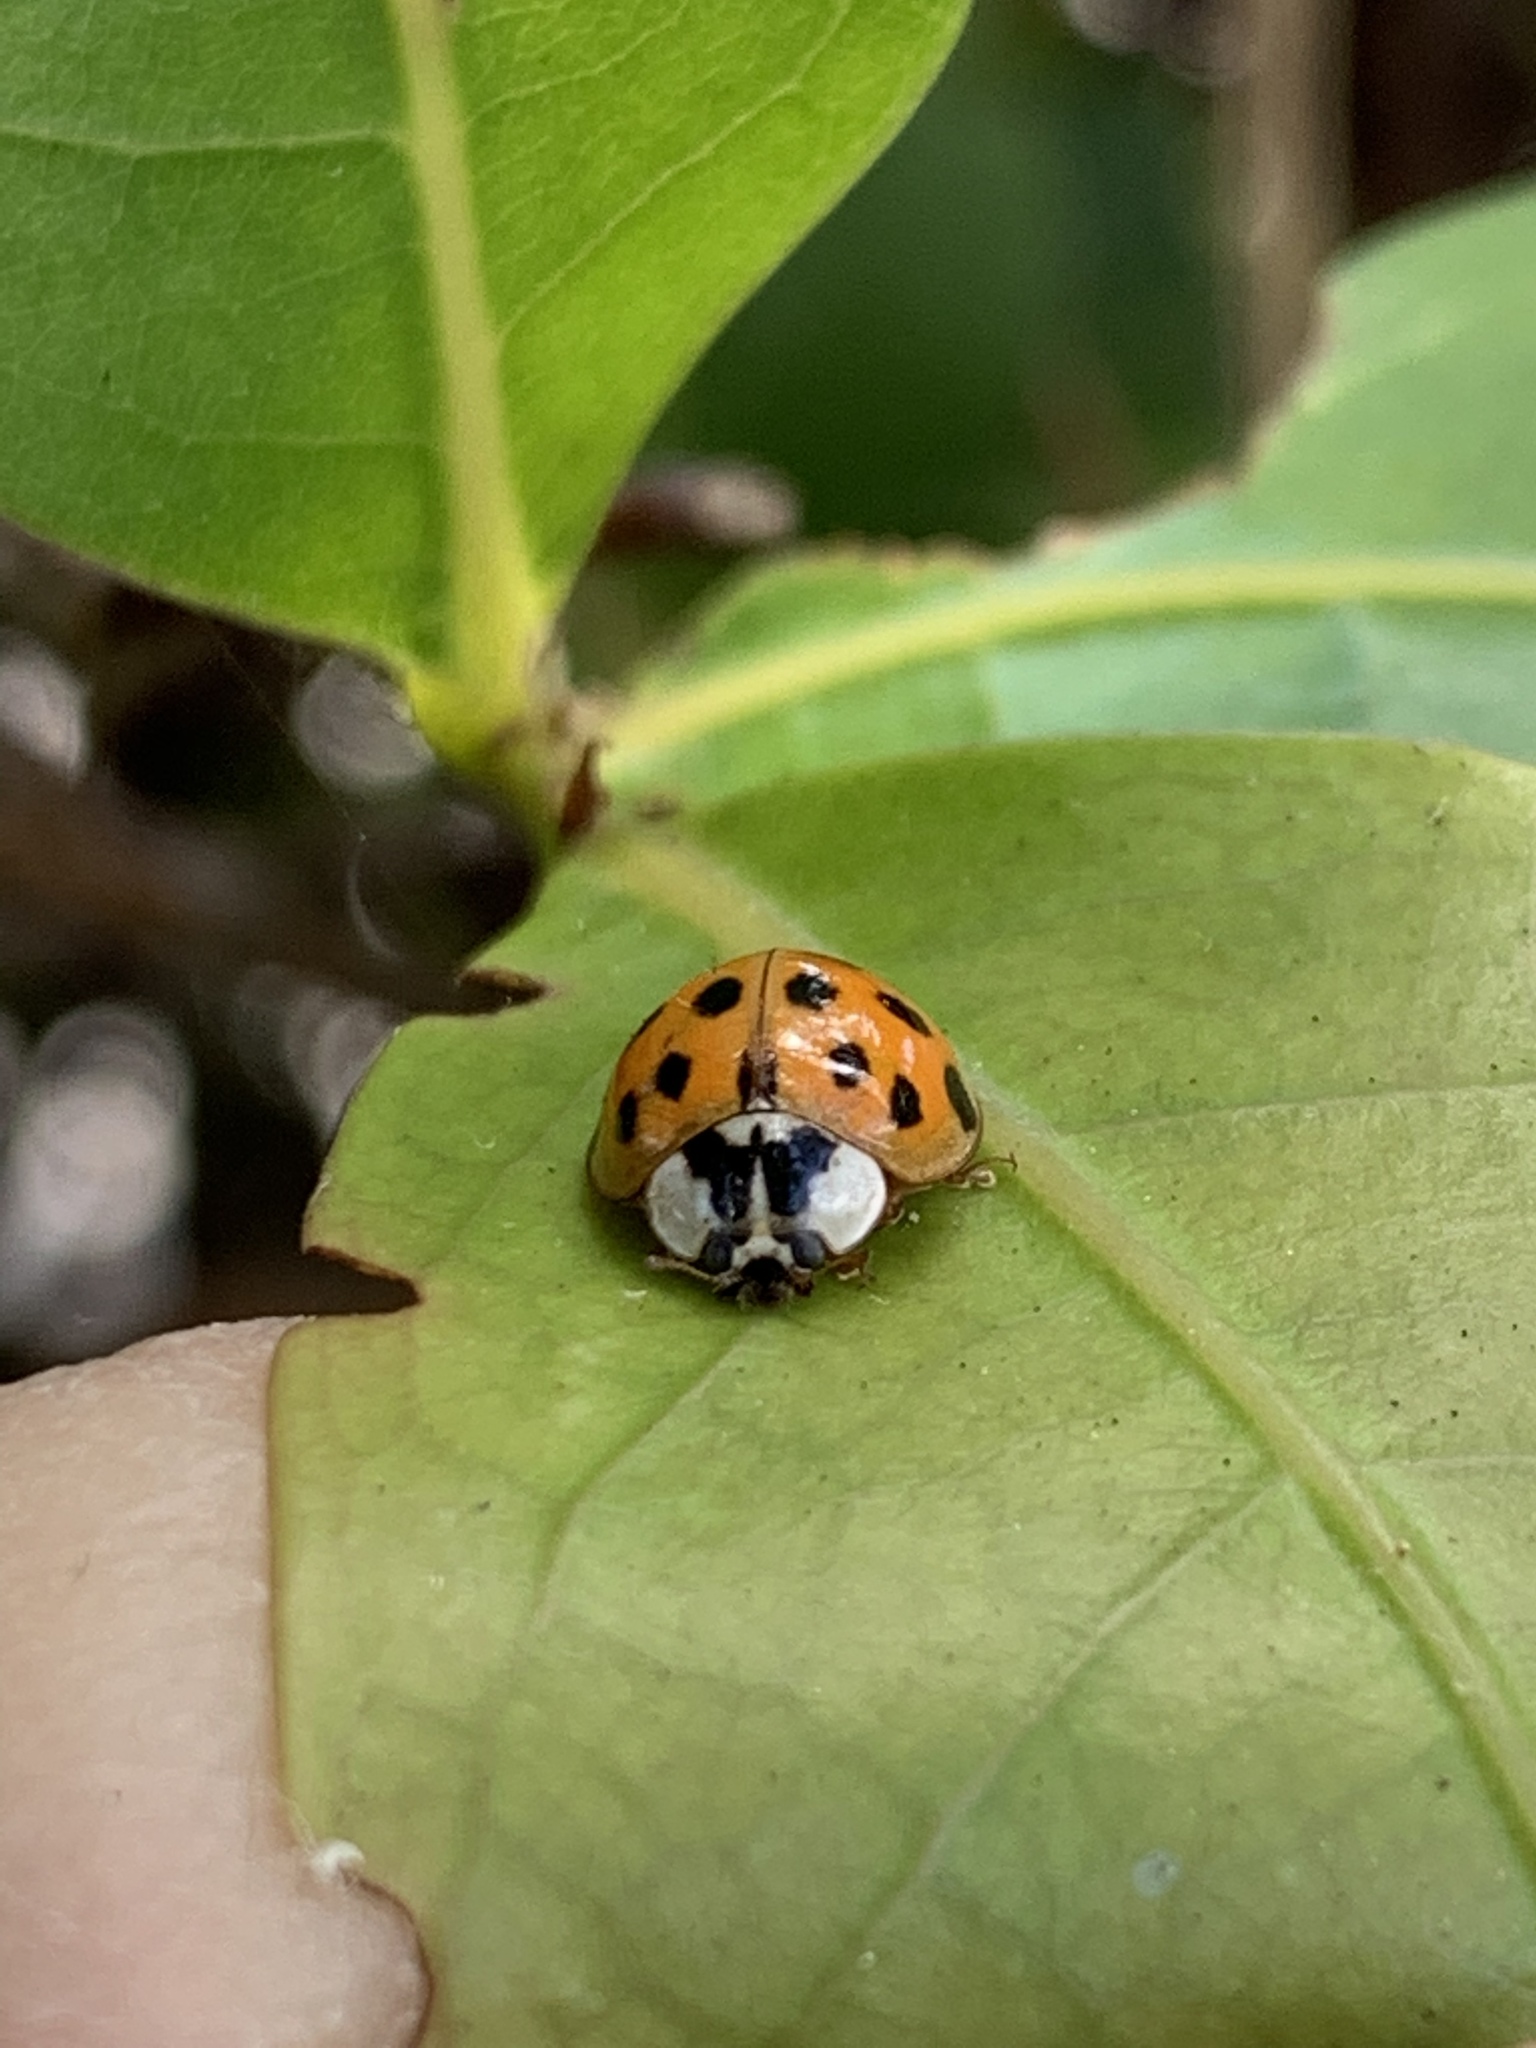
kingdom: Animalia
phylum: Arthropoda
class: Insecta
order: Coleoptera
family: Coccinellidae
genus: Harmonia
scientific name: Harmonia axyridis
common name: Harlequin ladybird
